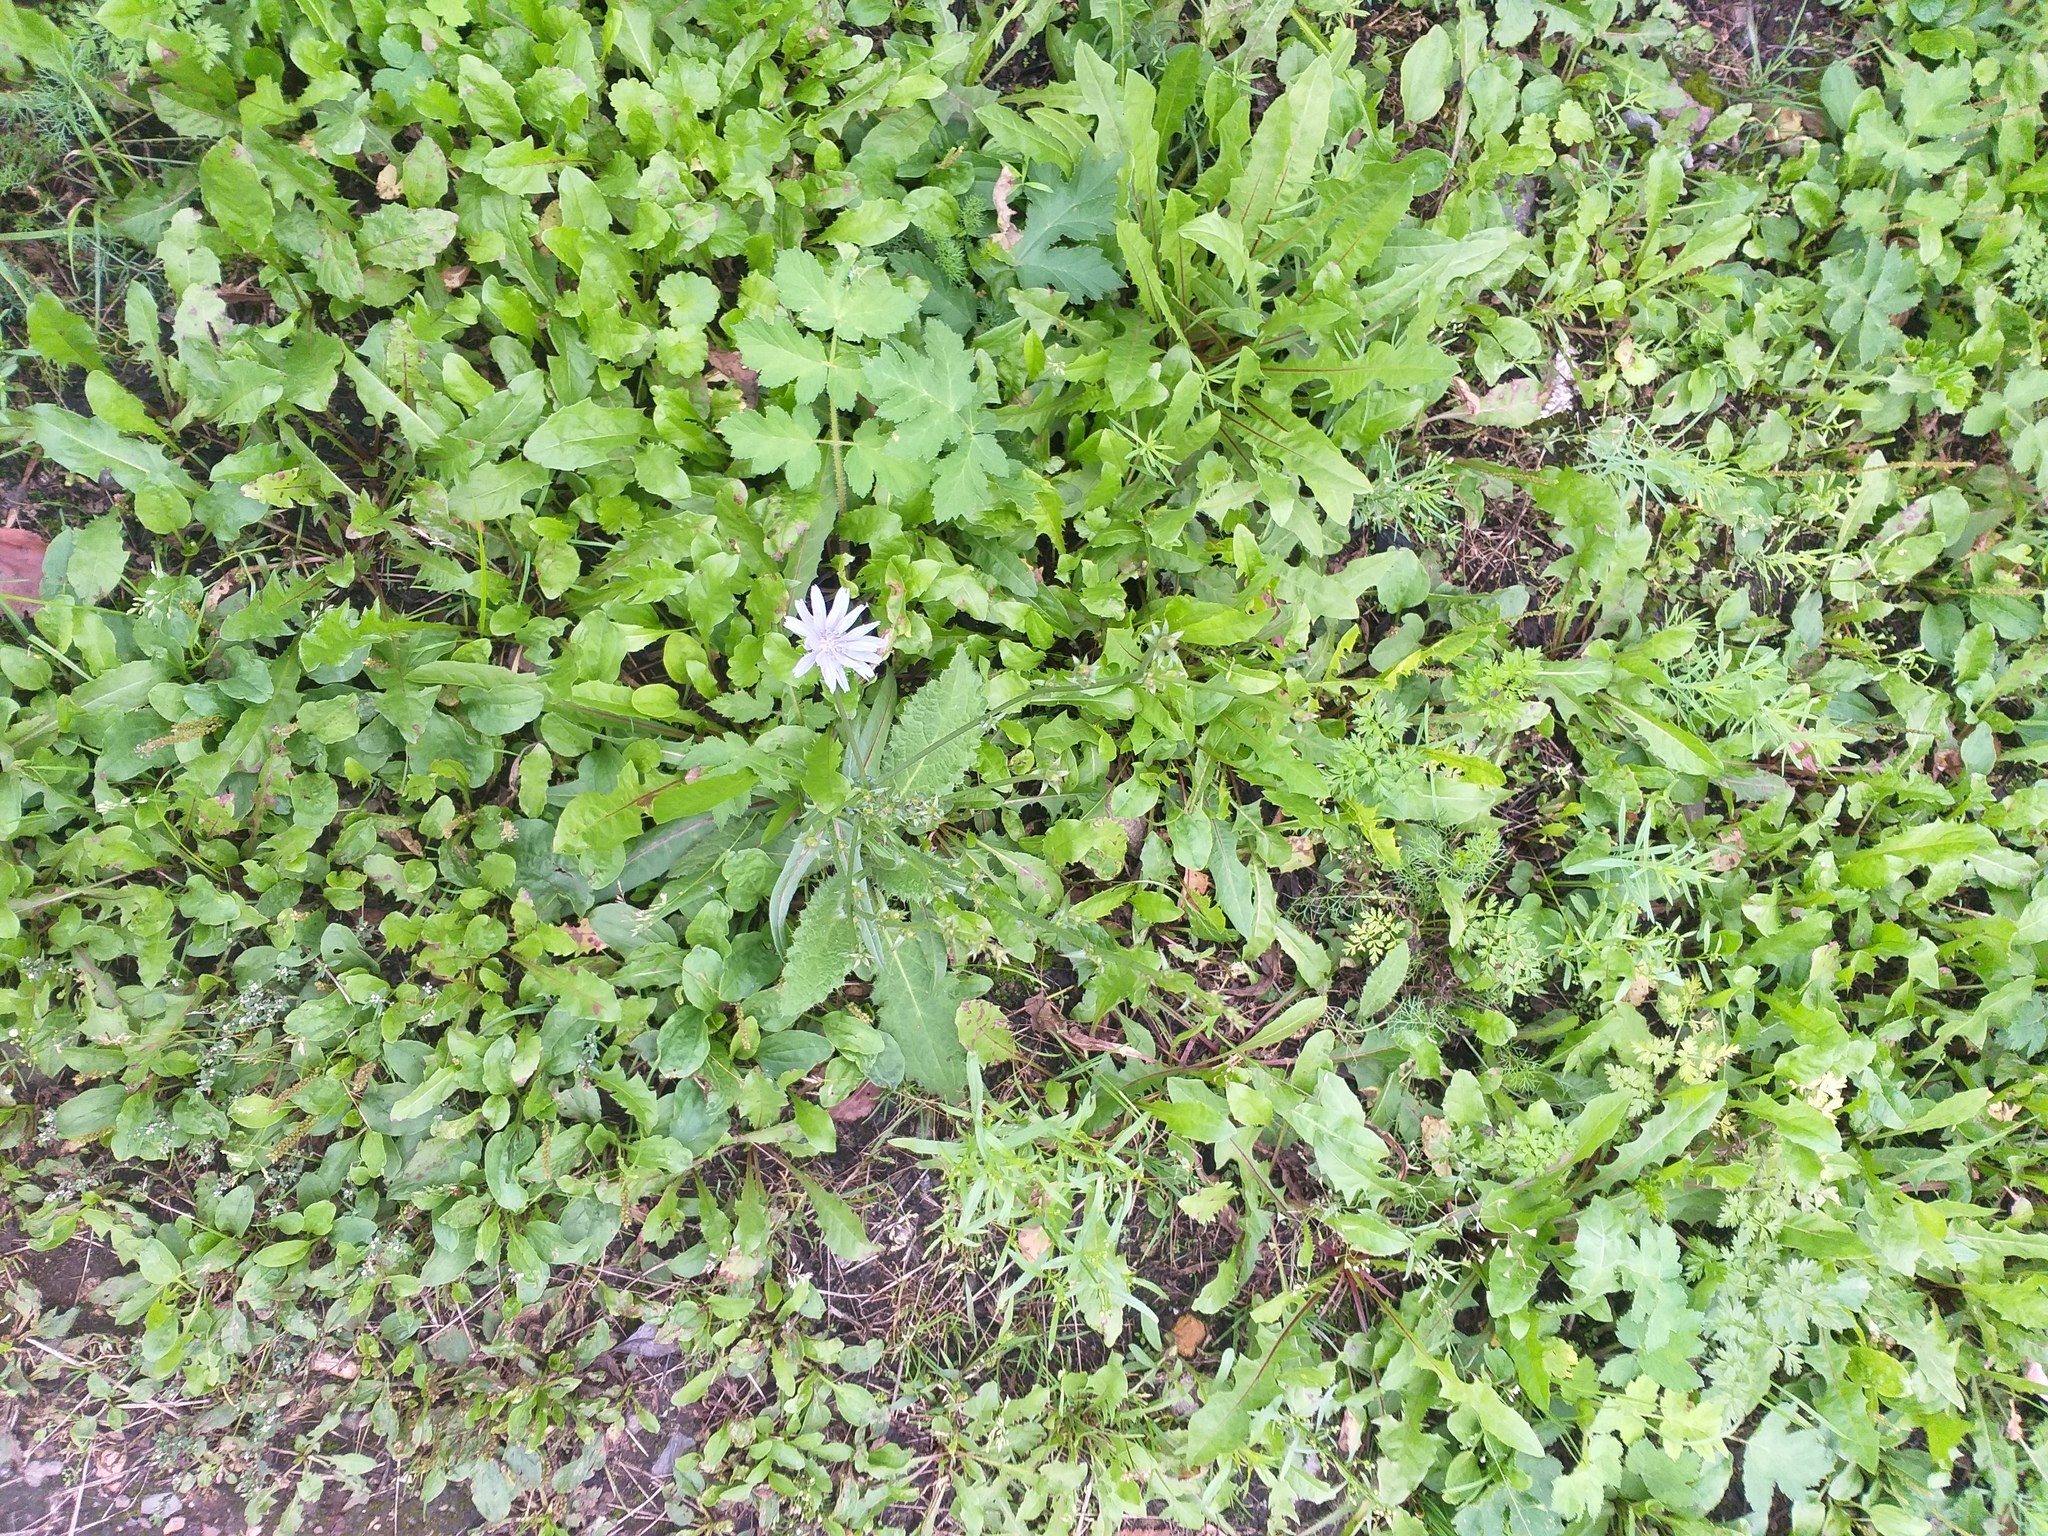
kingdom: Plantae
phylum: Tracheophyta
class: Magnoliopsida
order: Asterales
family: Asteraceae
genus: Cichorium
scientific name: Cichorium intybus
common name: Chicory
